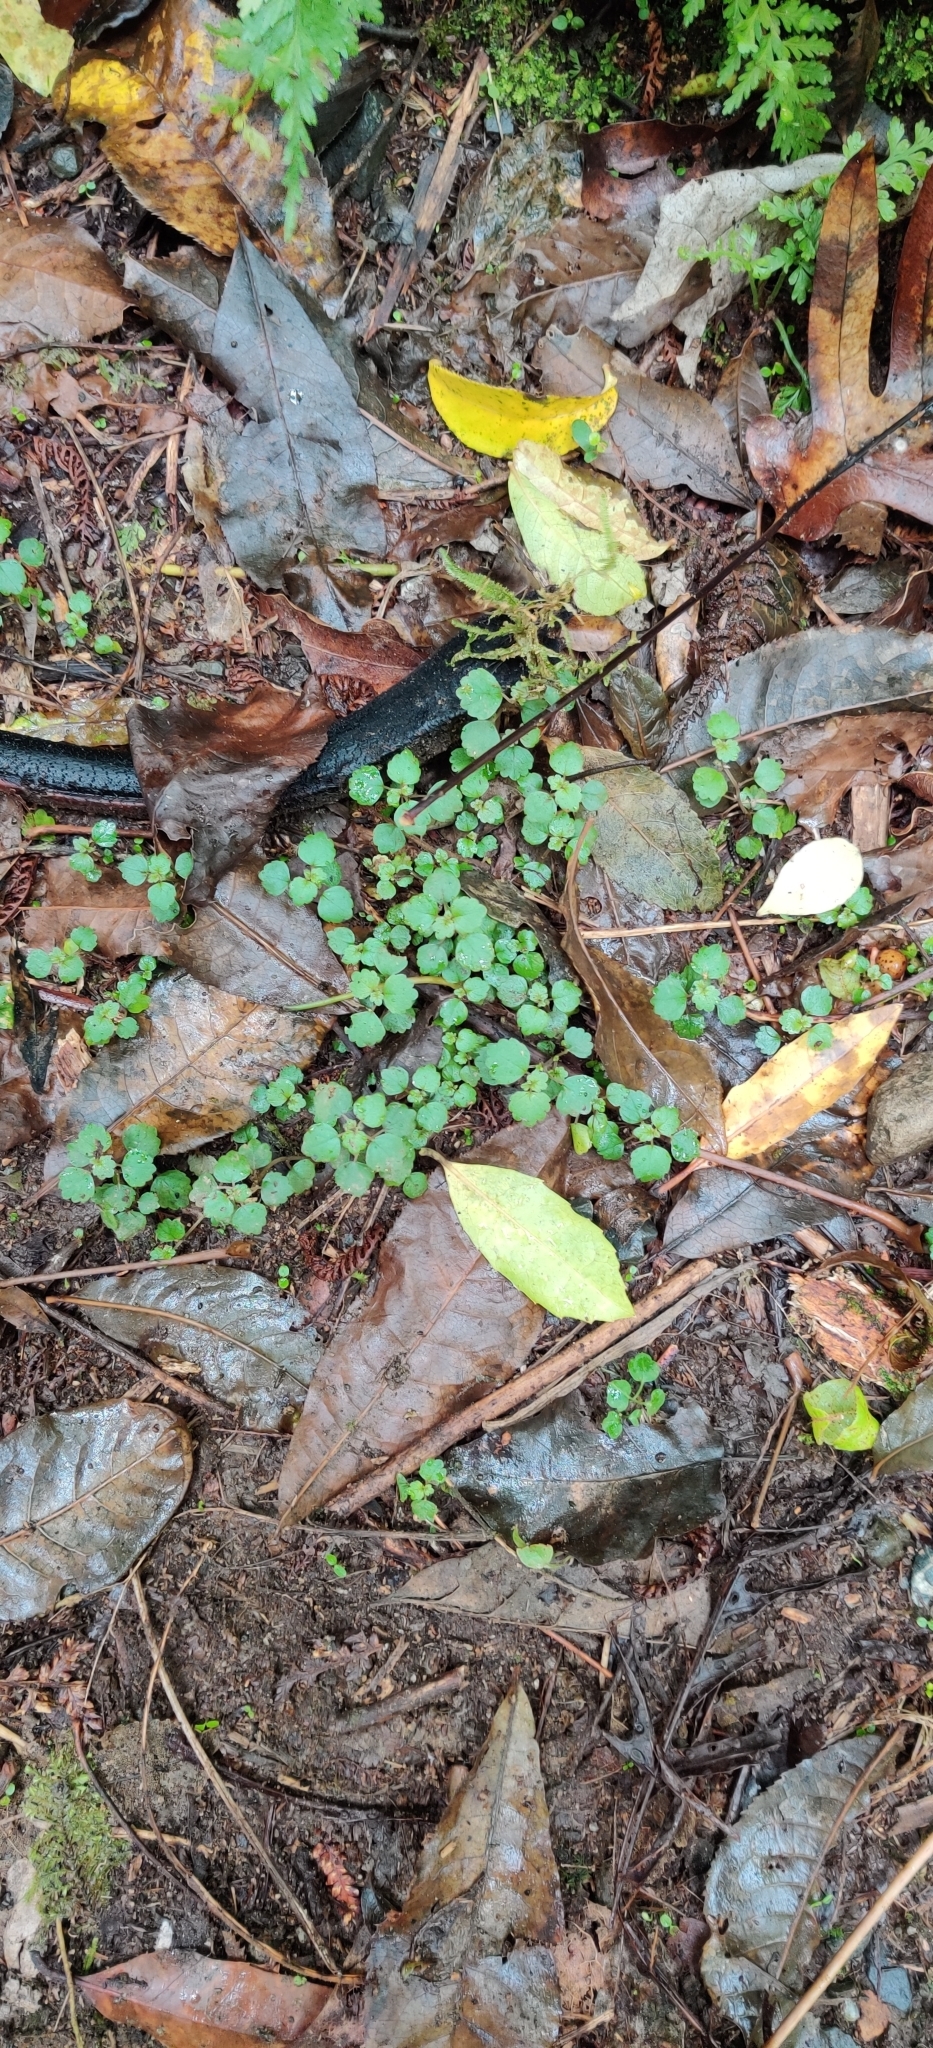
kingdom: Plantae
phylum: Tracheophyta
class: Magnoliopsida
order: Rosales
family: Urticaceae
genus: Australina
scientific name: Australina pusilla
